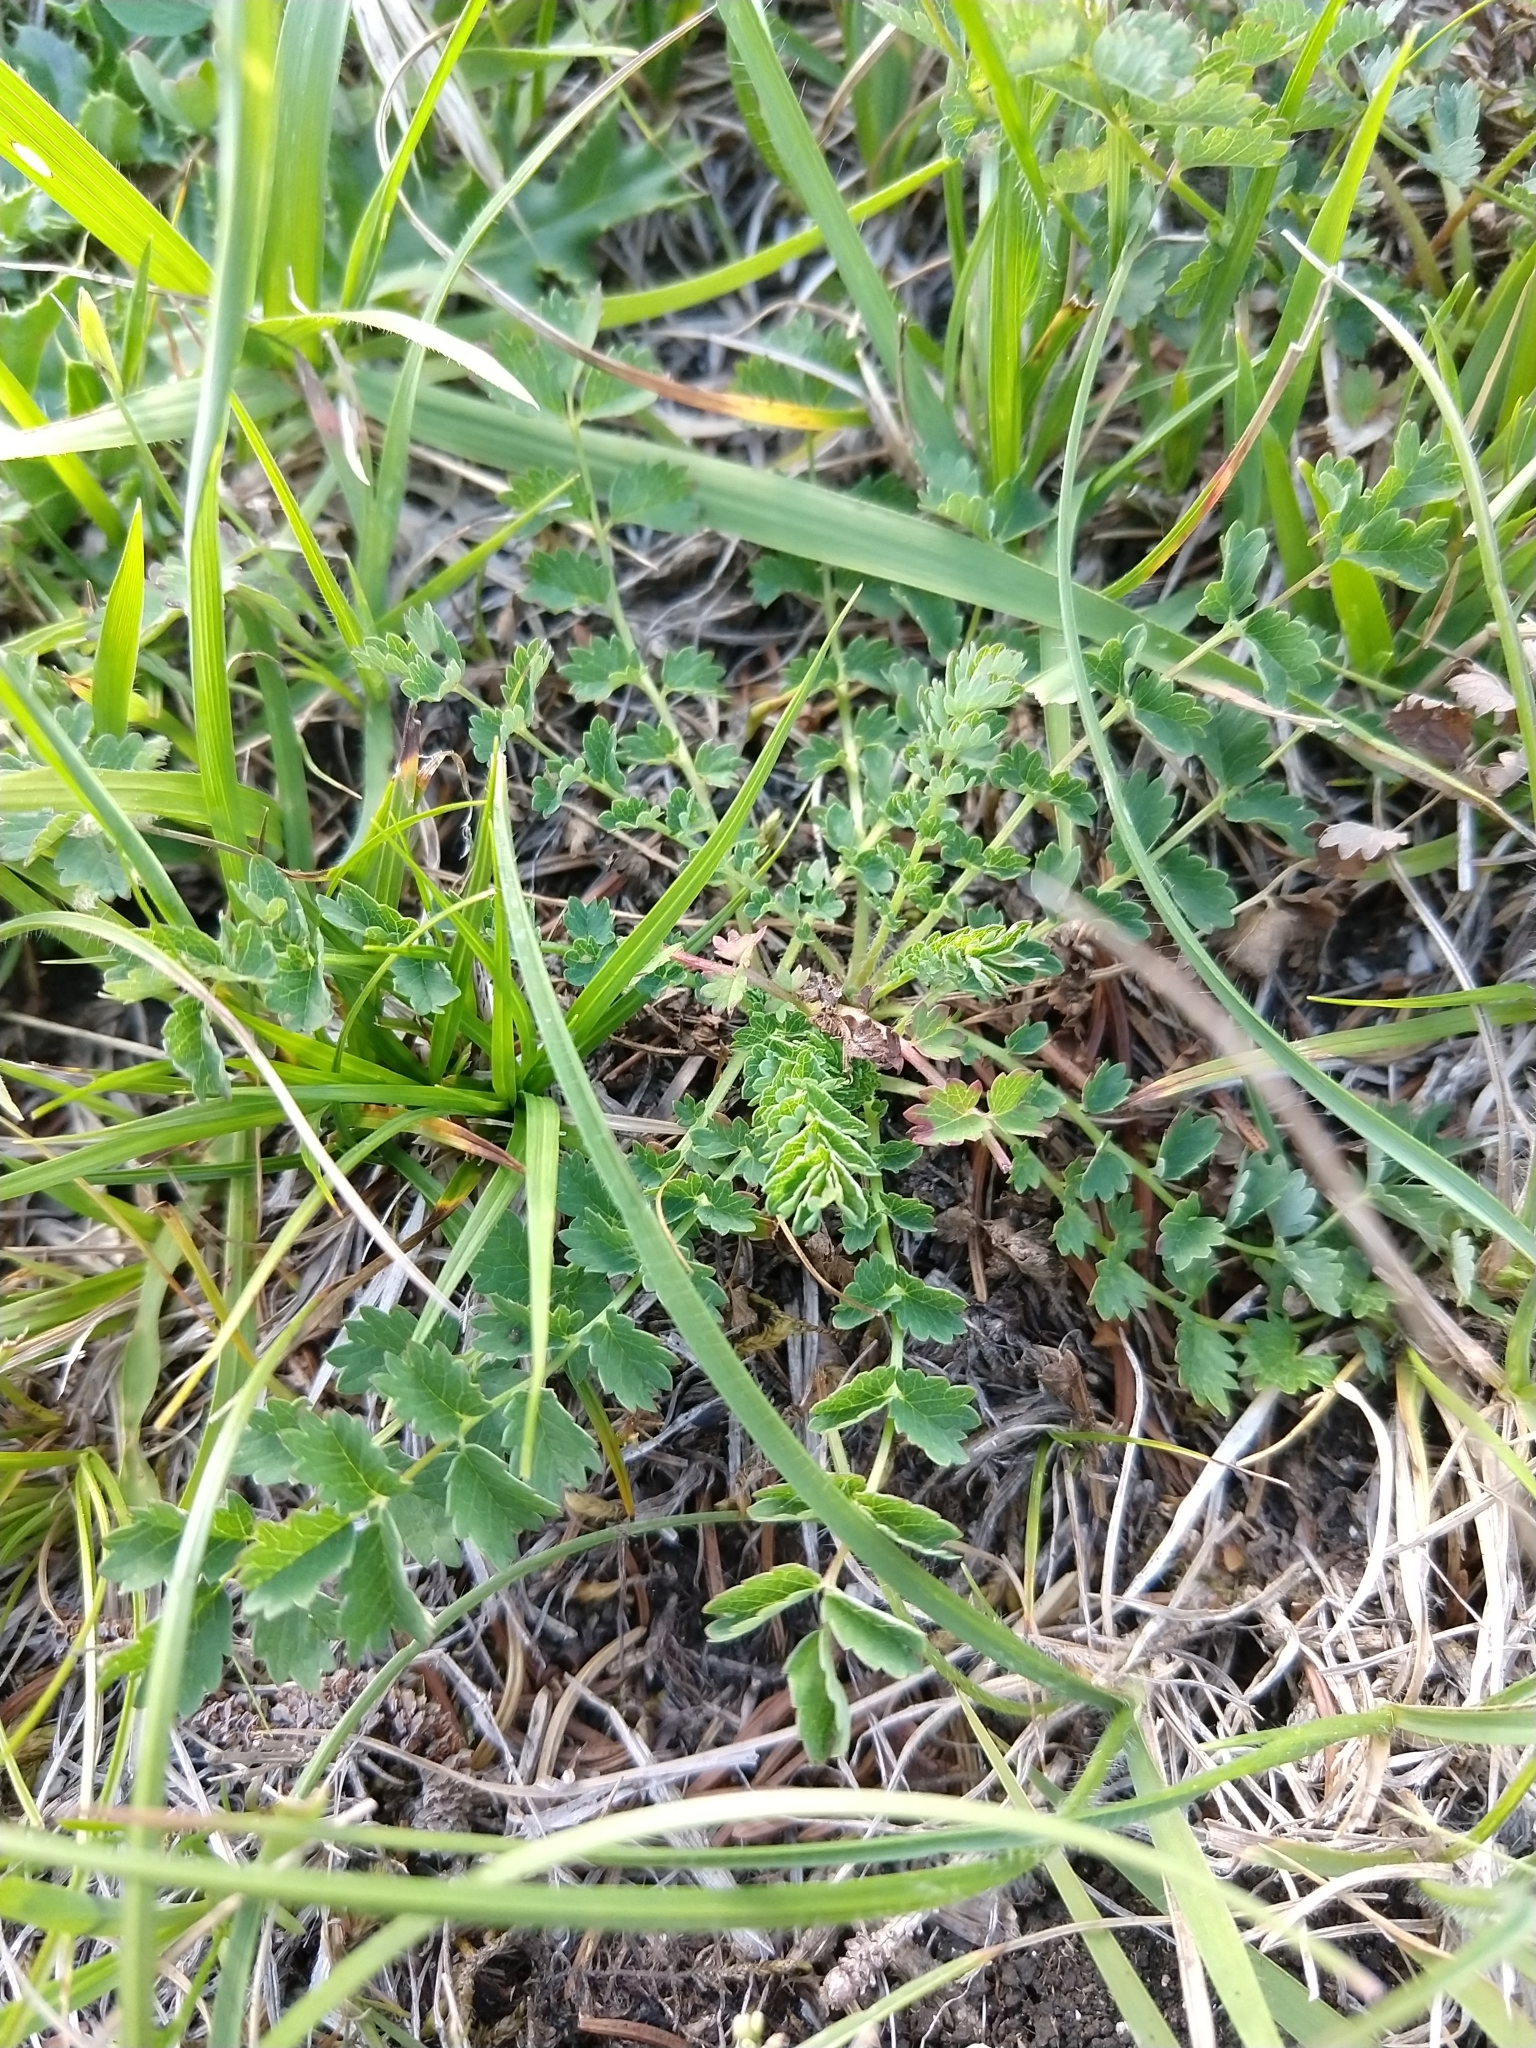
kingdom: Plantae
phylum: Tracheophyta
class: Magnoliopsida
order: Rosales
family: Rosaceae
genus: Poterium
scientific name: Poterium sanguisorba
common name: Salad burnet
